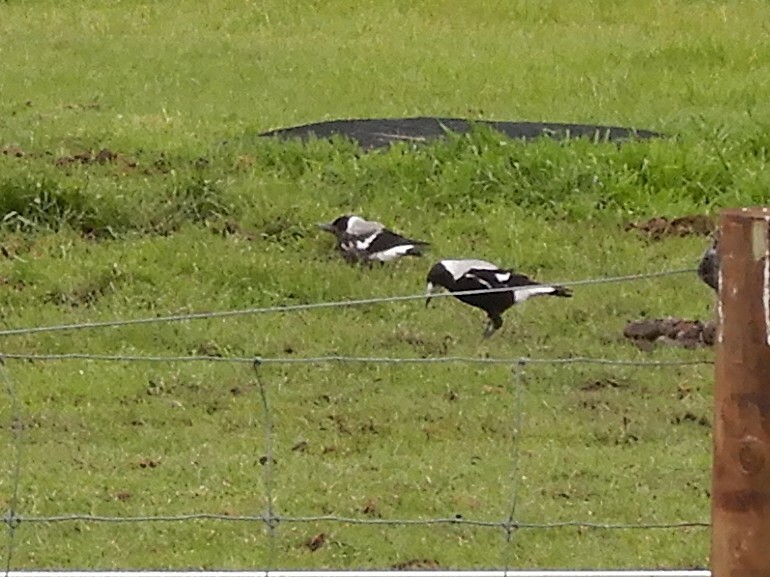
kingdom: Animalia
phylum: Chordata
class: Aves
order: Passeriformes
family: Cracticidae
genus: Gymnorhina
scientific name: Gymnorhina tibicen
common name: Australian magpie
